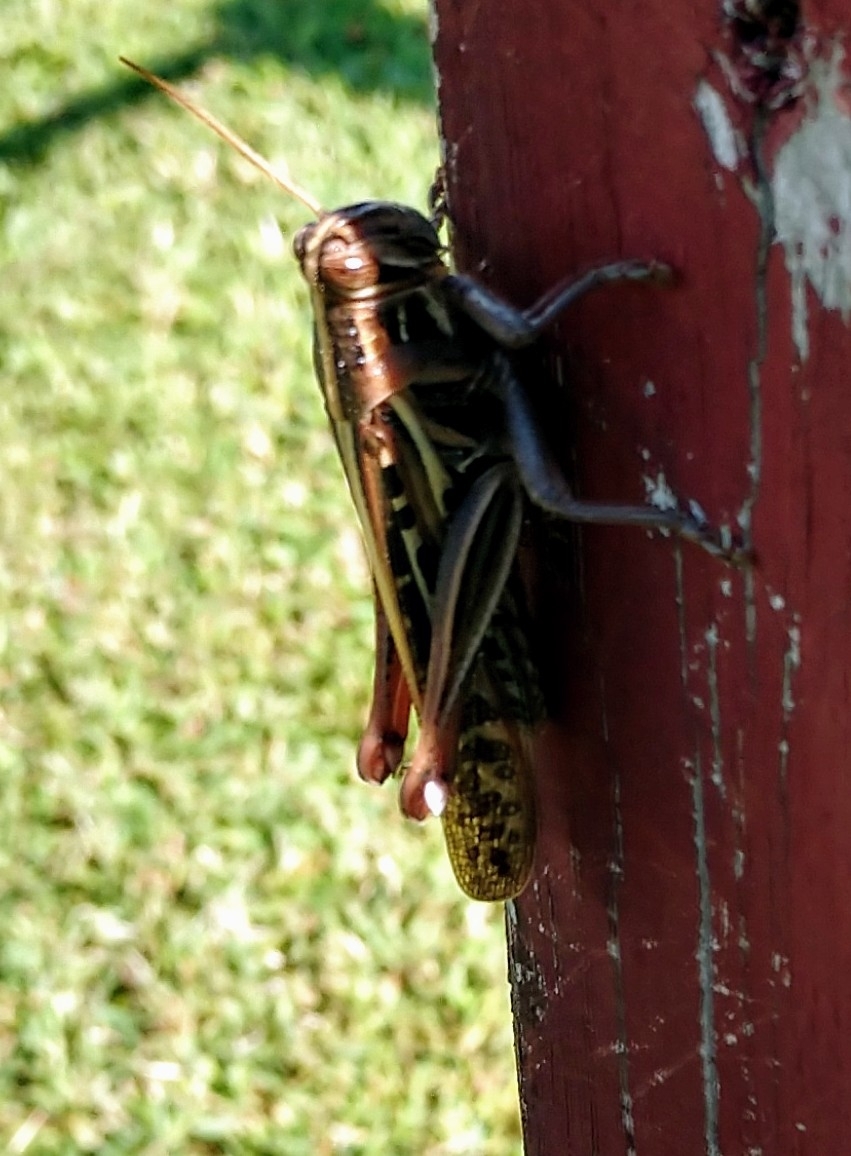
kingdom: Animalia
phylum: Arthropoda
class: Insecta
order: Orthoptera
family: Acrididae
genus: Schistocerca
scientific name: Schistocerca americana
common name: American bird locust
